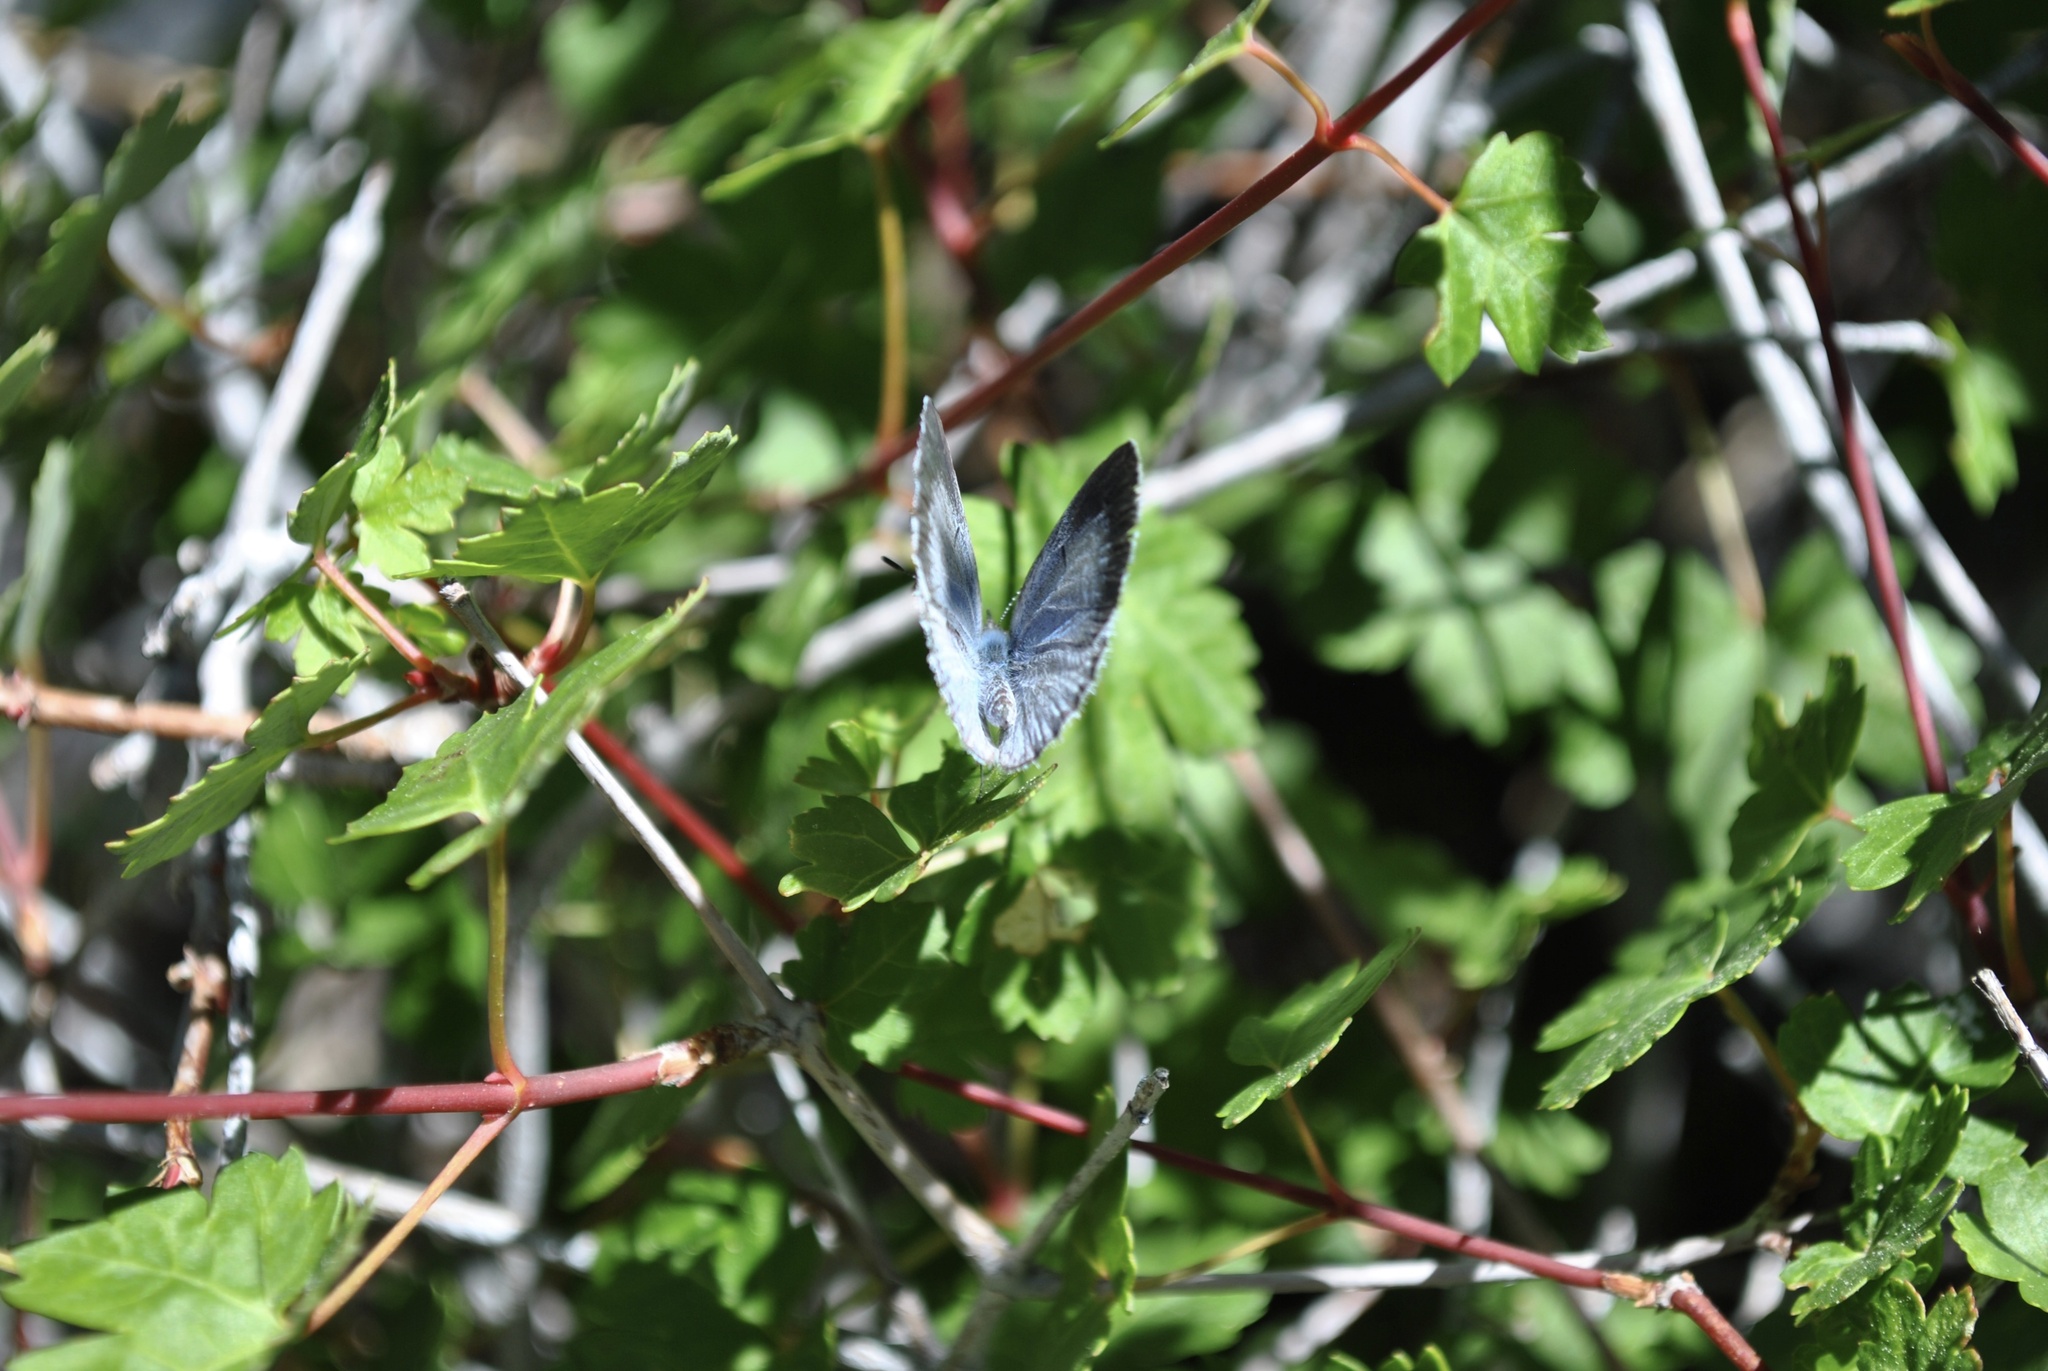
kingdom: Animalia
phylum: Arthropoda
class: Insecta
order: Lepidoptera
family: Lycaenidae
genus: Celastrina
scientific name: Celastrina ladon
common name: Spring azure
